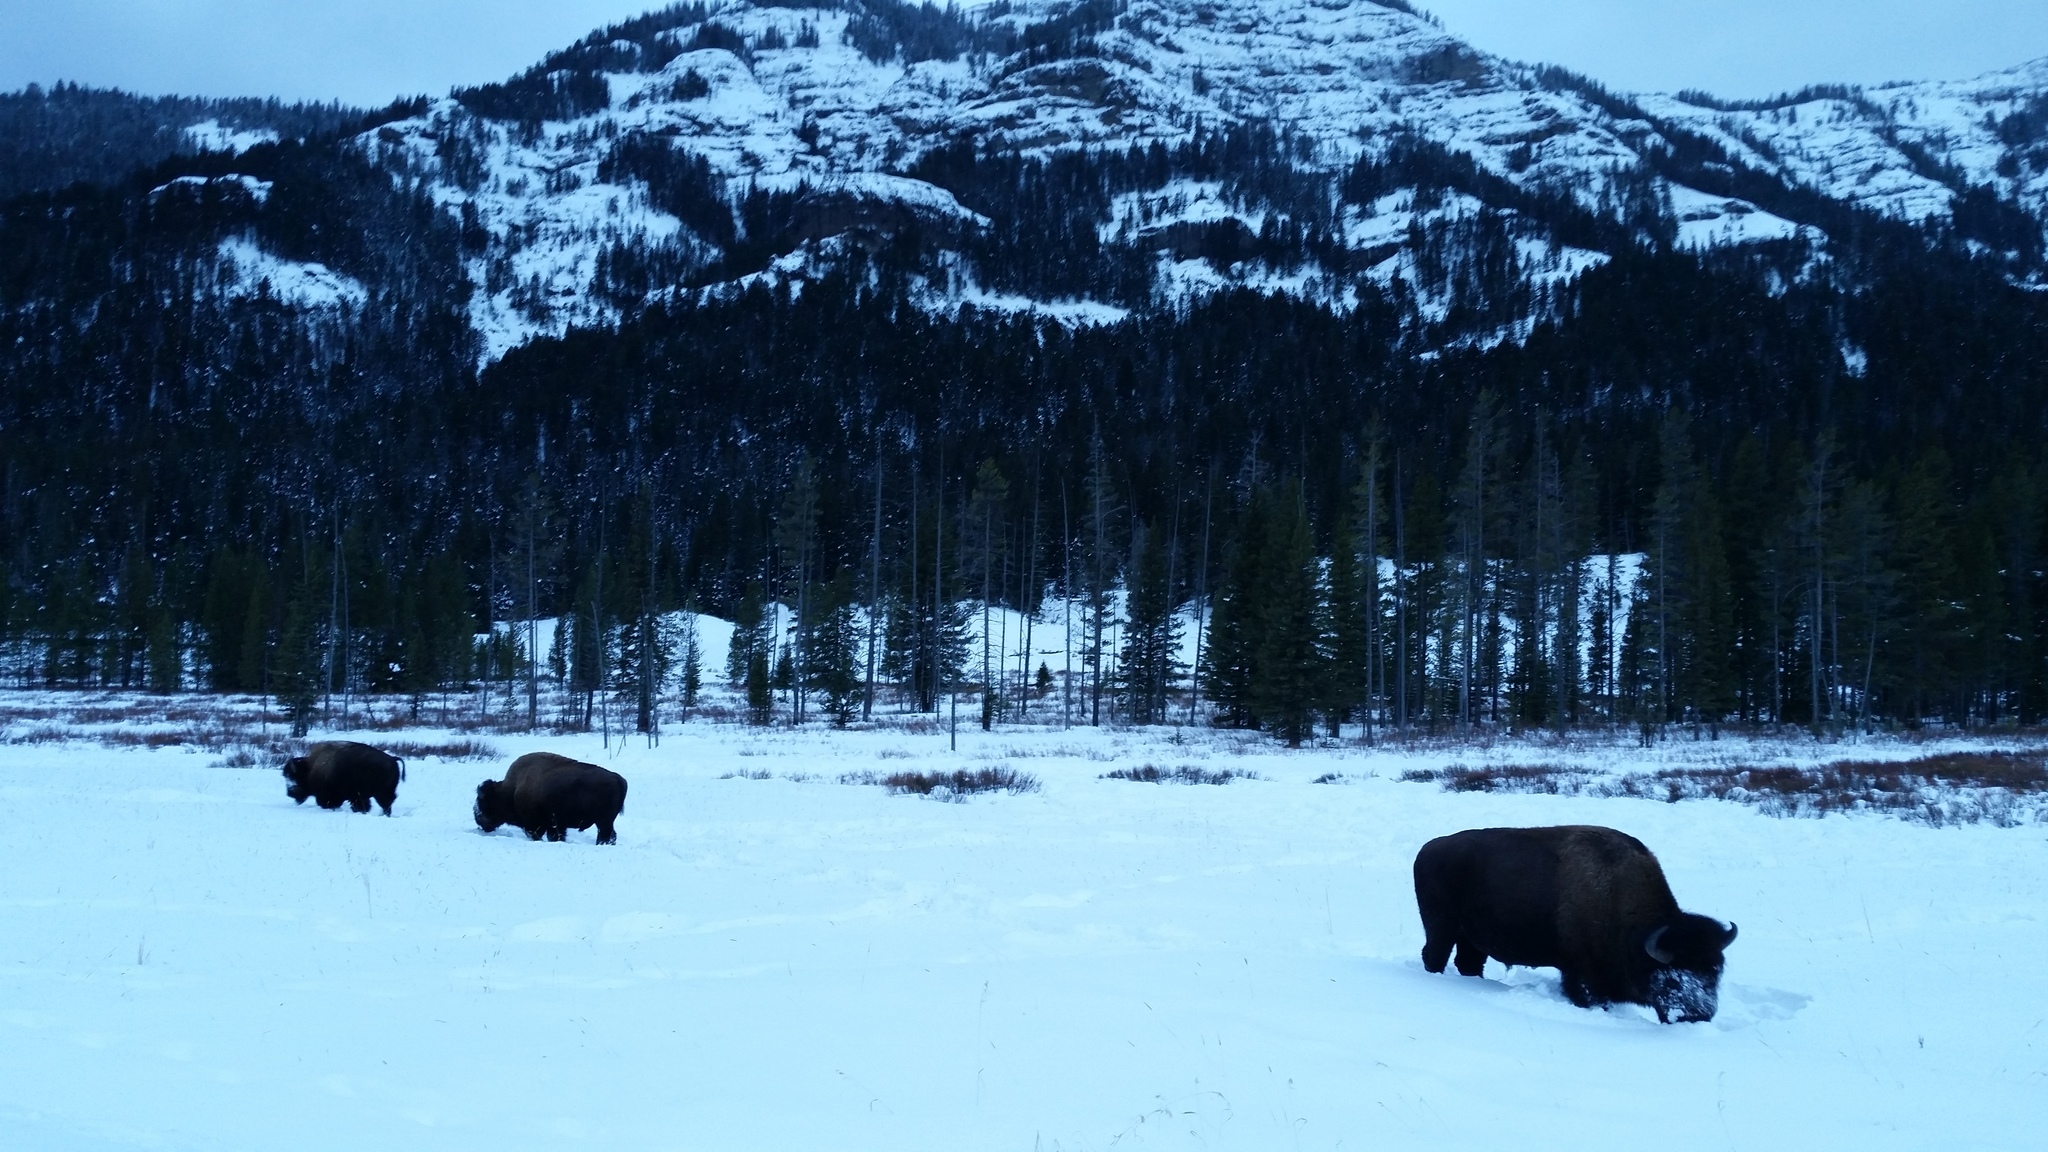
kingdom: Animalia
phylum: Chordata
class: Mammalia
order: Artiodactyla
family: Bovidae
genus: Bison
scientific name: Bison bison
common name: American bison
